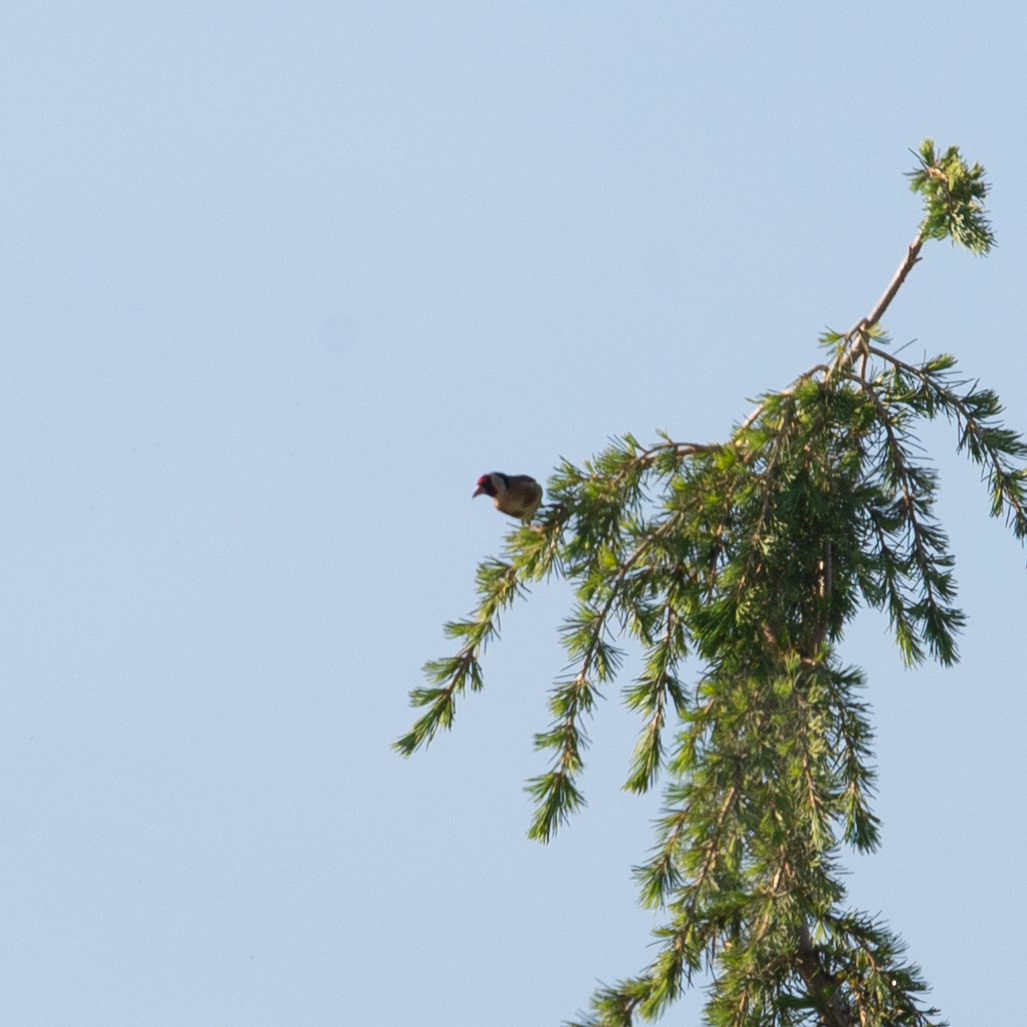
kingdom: Animalia
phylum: Chordata
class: Aves
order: Passeriformes
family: Fringillidae
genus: Carduelis
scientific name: Carduelis carduelis
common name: European goldfinch
